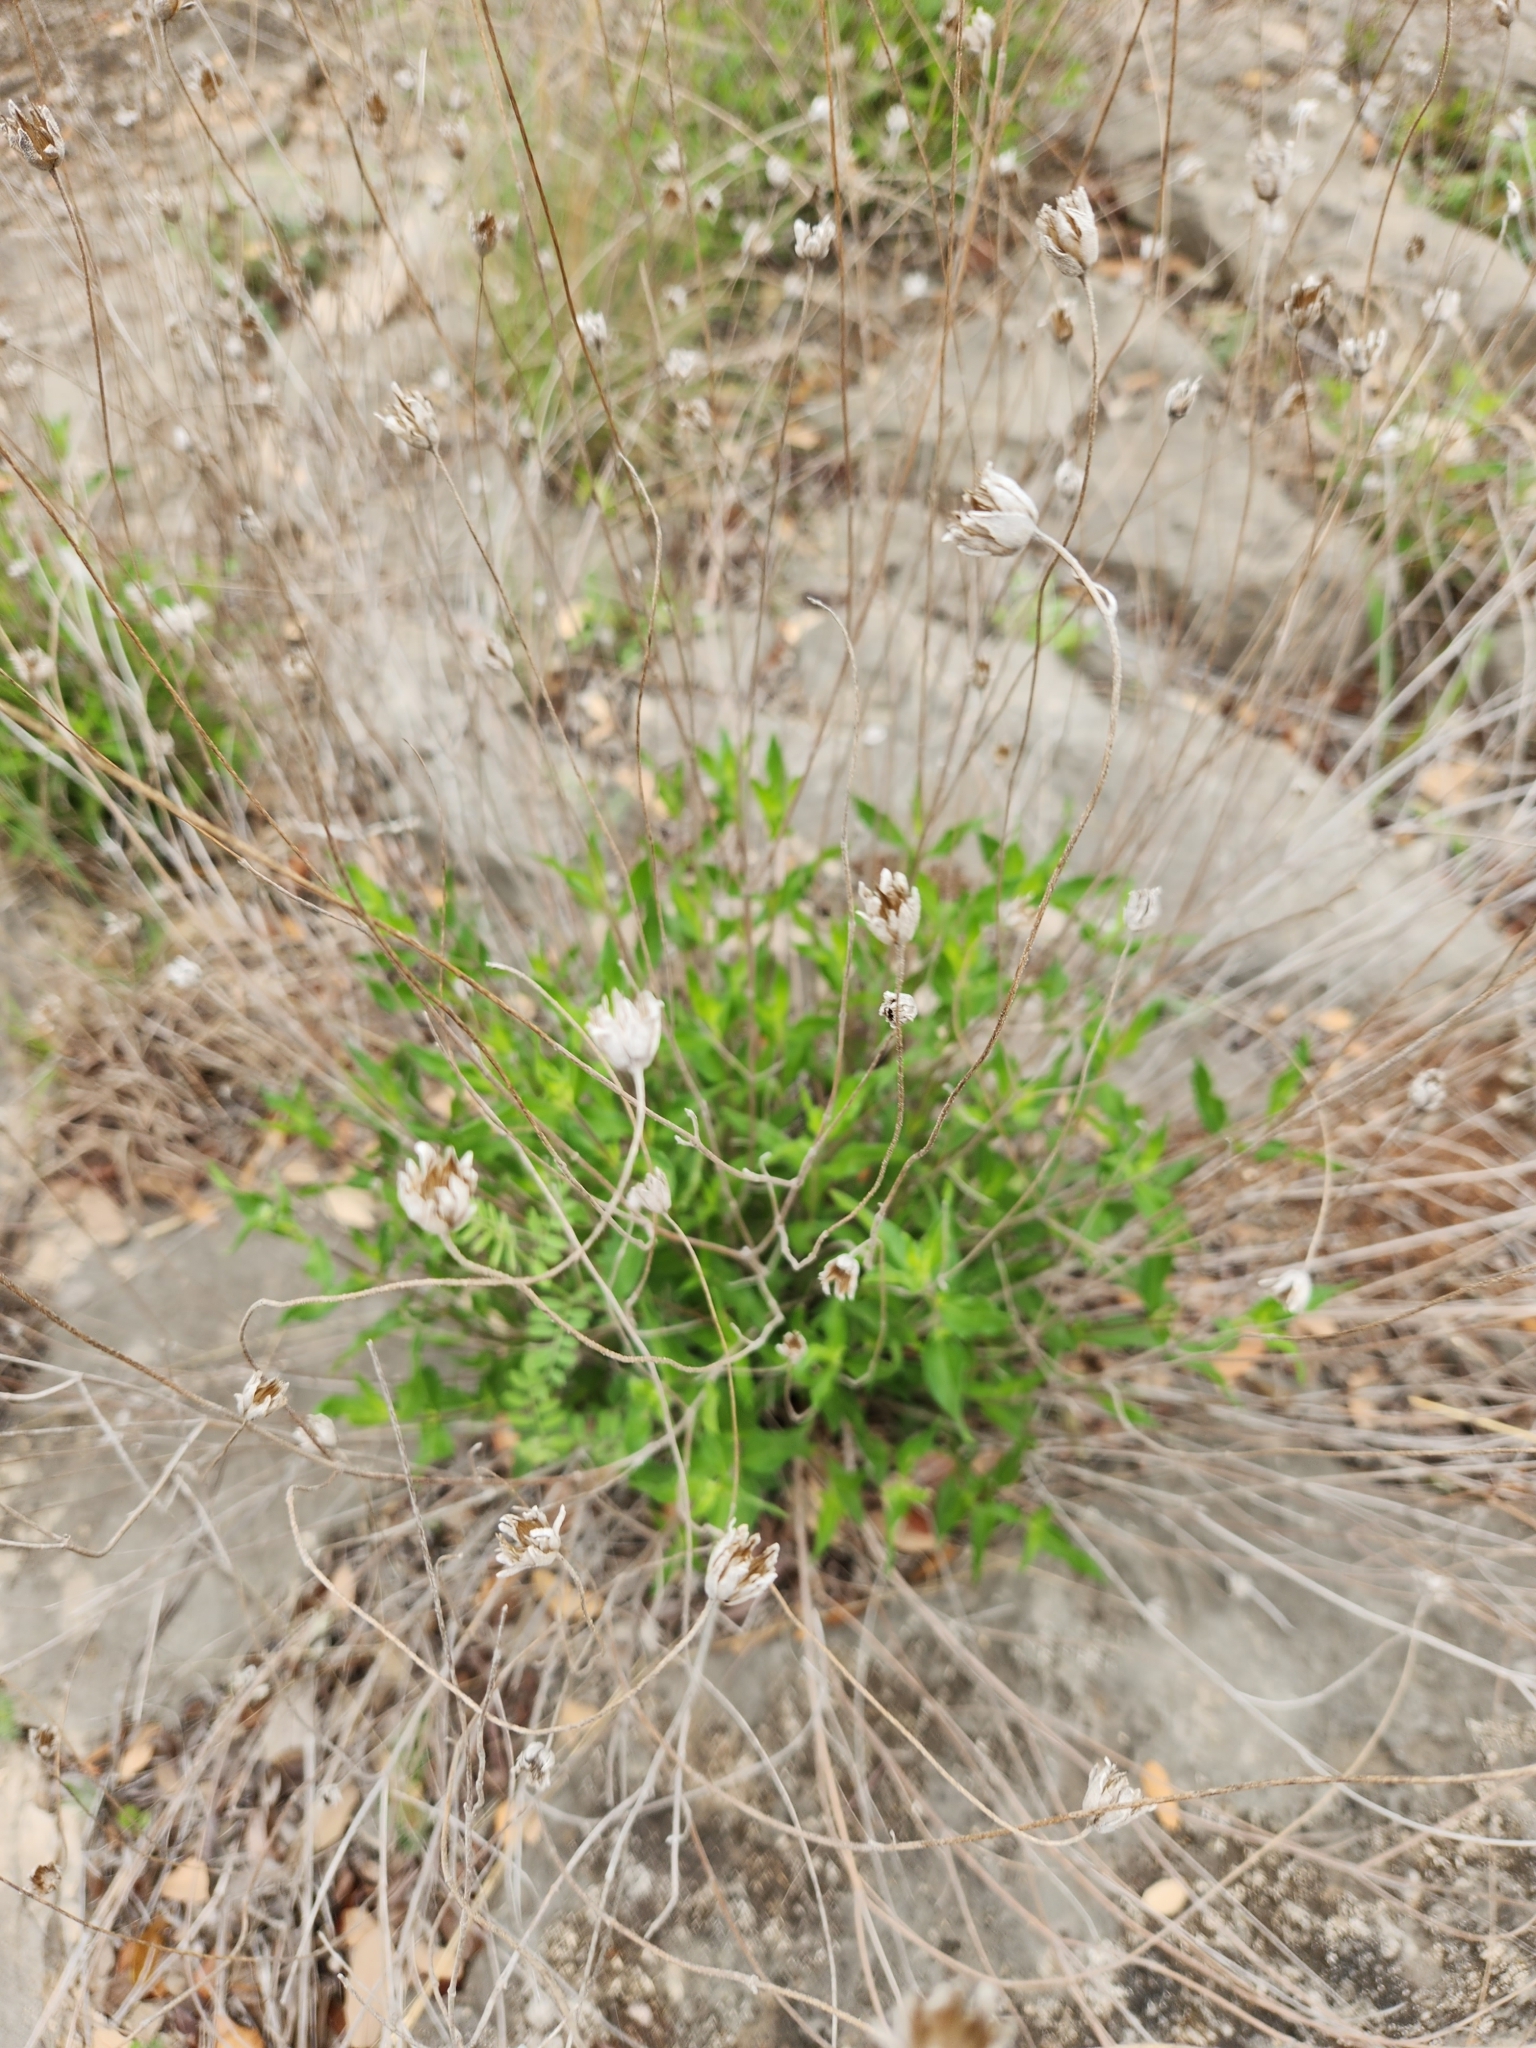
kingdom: Plantae
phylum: Tracheophyta
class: Magnoliopsida
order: Asterales
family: Asteraceae
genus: Wedelia
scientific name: Wedelia acapulcensis
